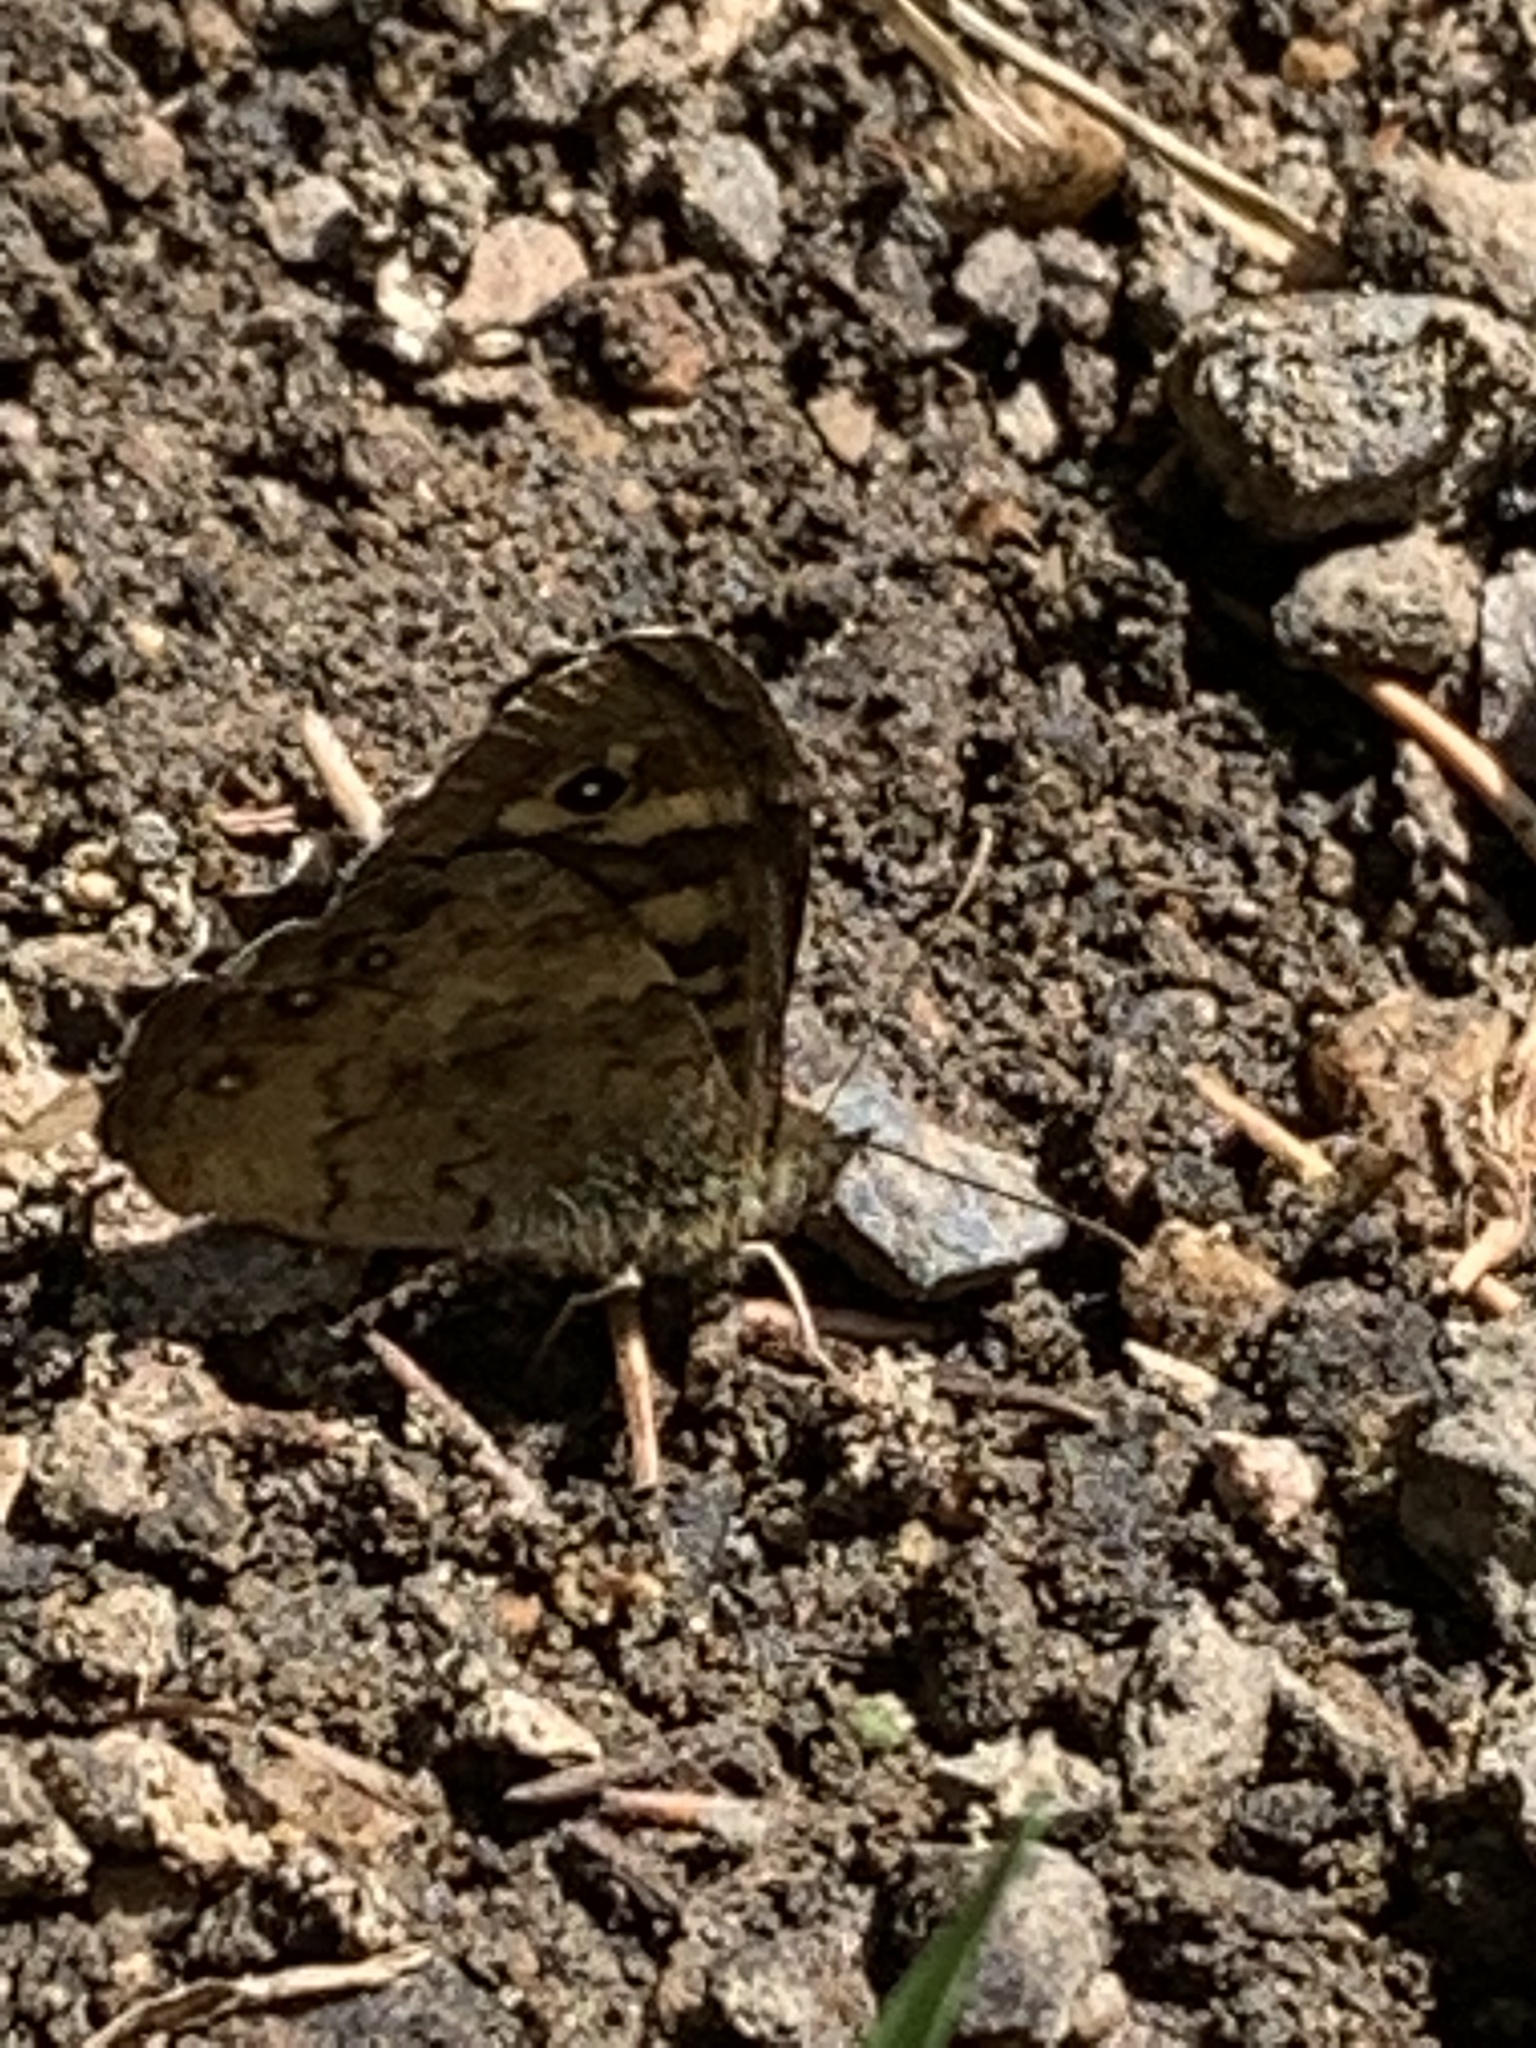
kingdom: Animalia
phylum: Arthropoda
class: Insecta
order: Lepidoptera
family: Nymphalidae
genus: Pararge
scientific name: Pararge aegeria
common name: Speckled wood
